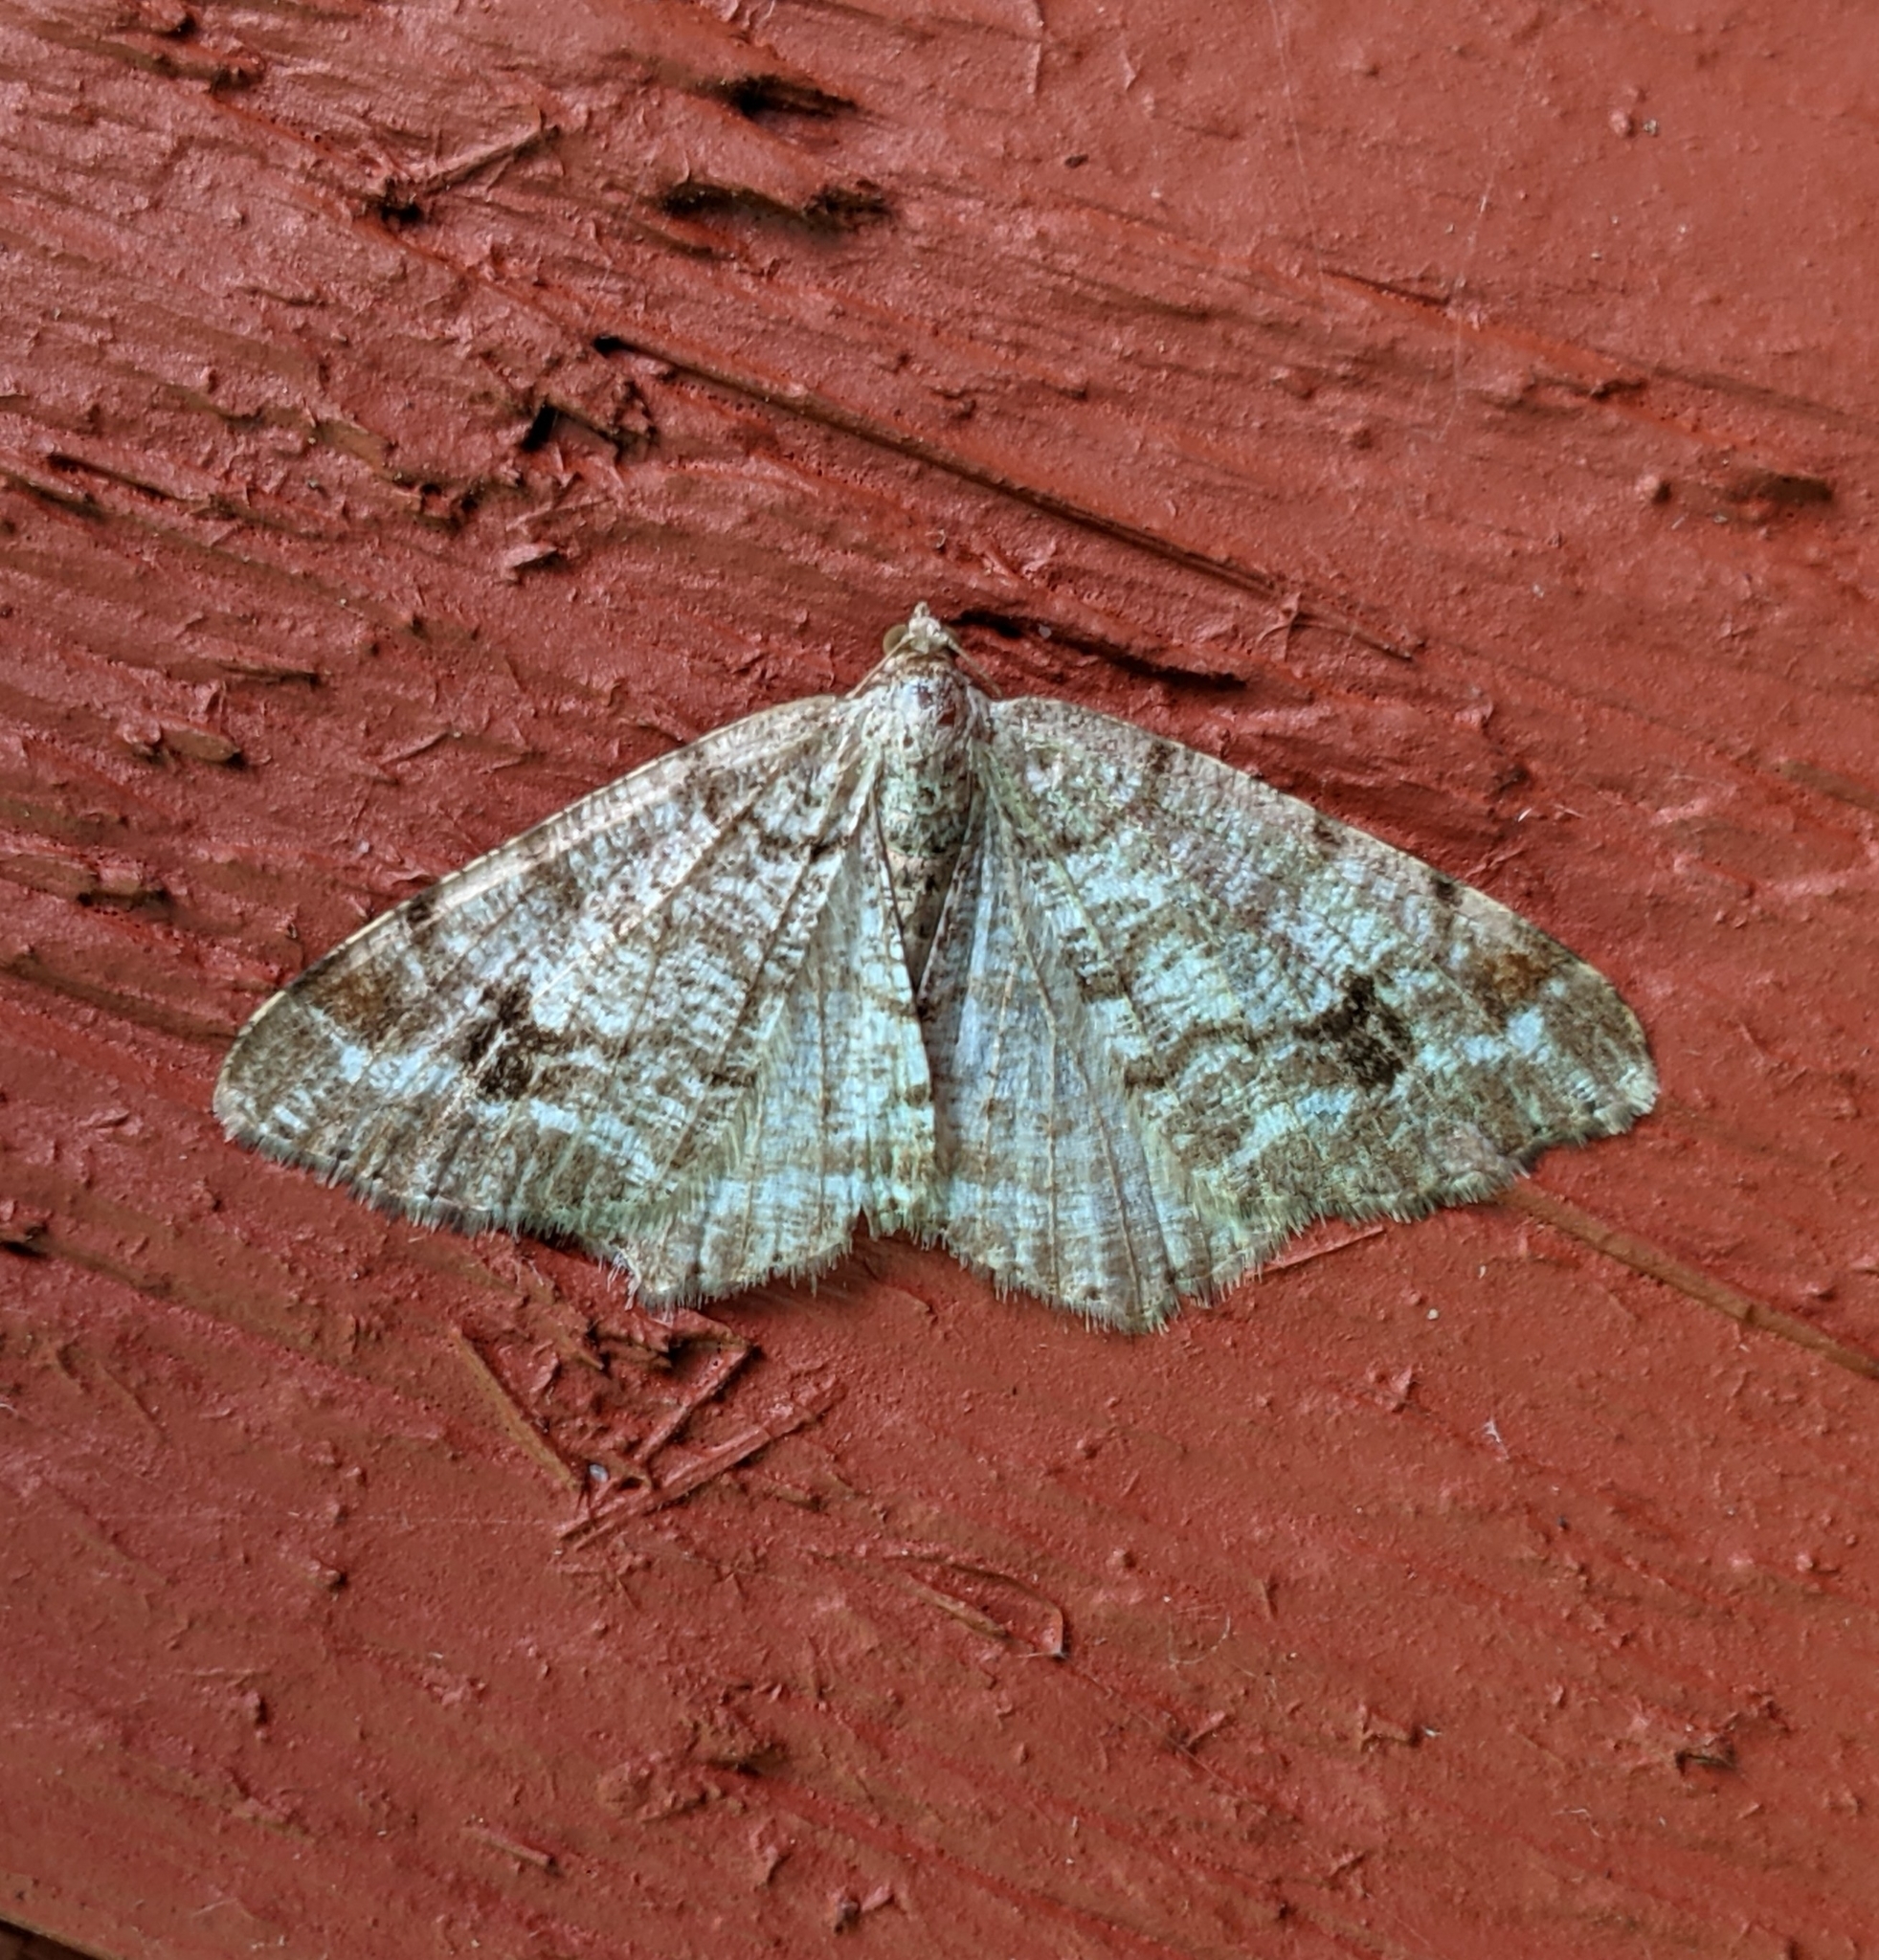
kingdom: Animalia
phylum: Arthropoda
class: Insecta
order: Lepidoptera
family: Geometridae
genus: Macaria
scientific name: Macaria signaria
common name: Dusky peacock
